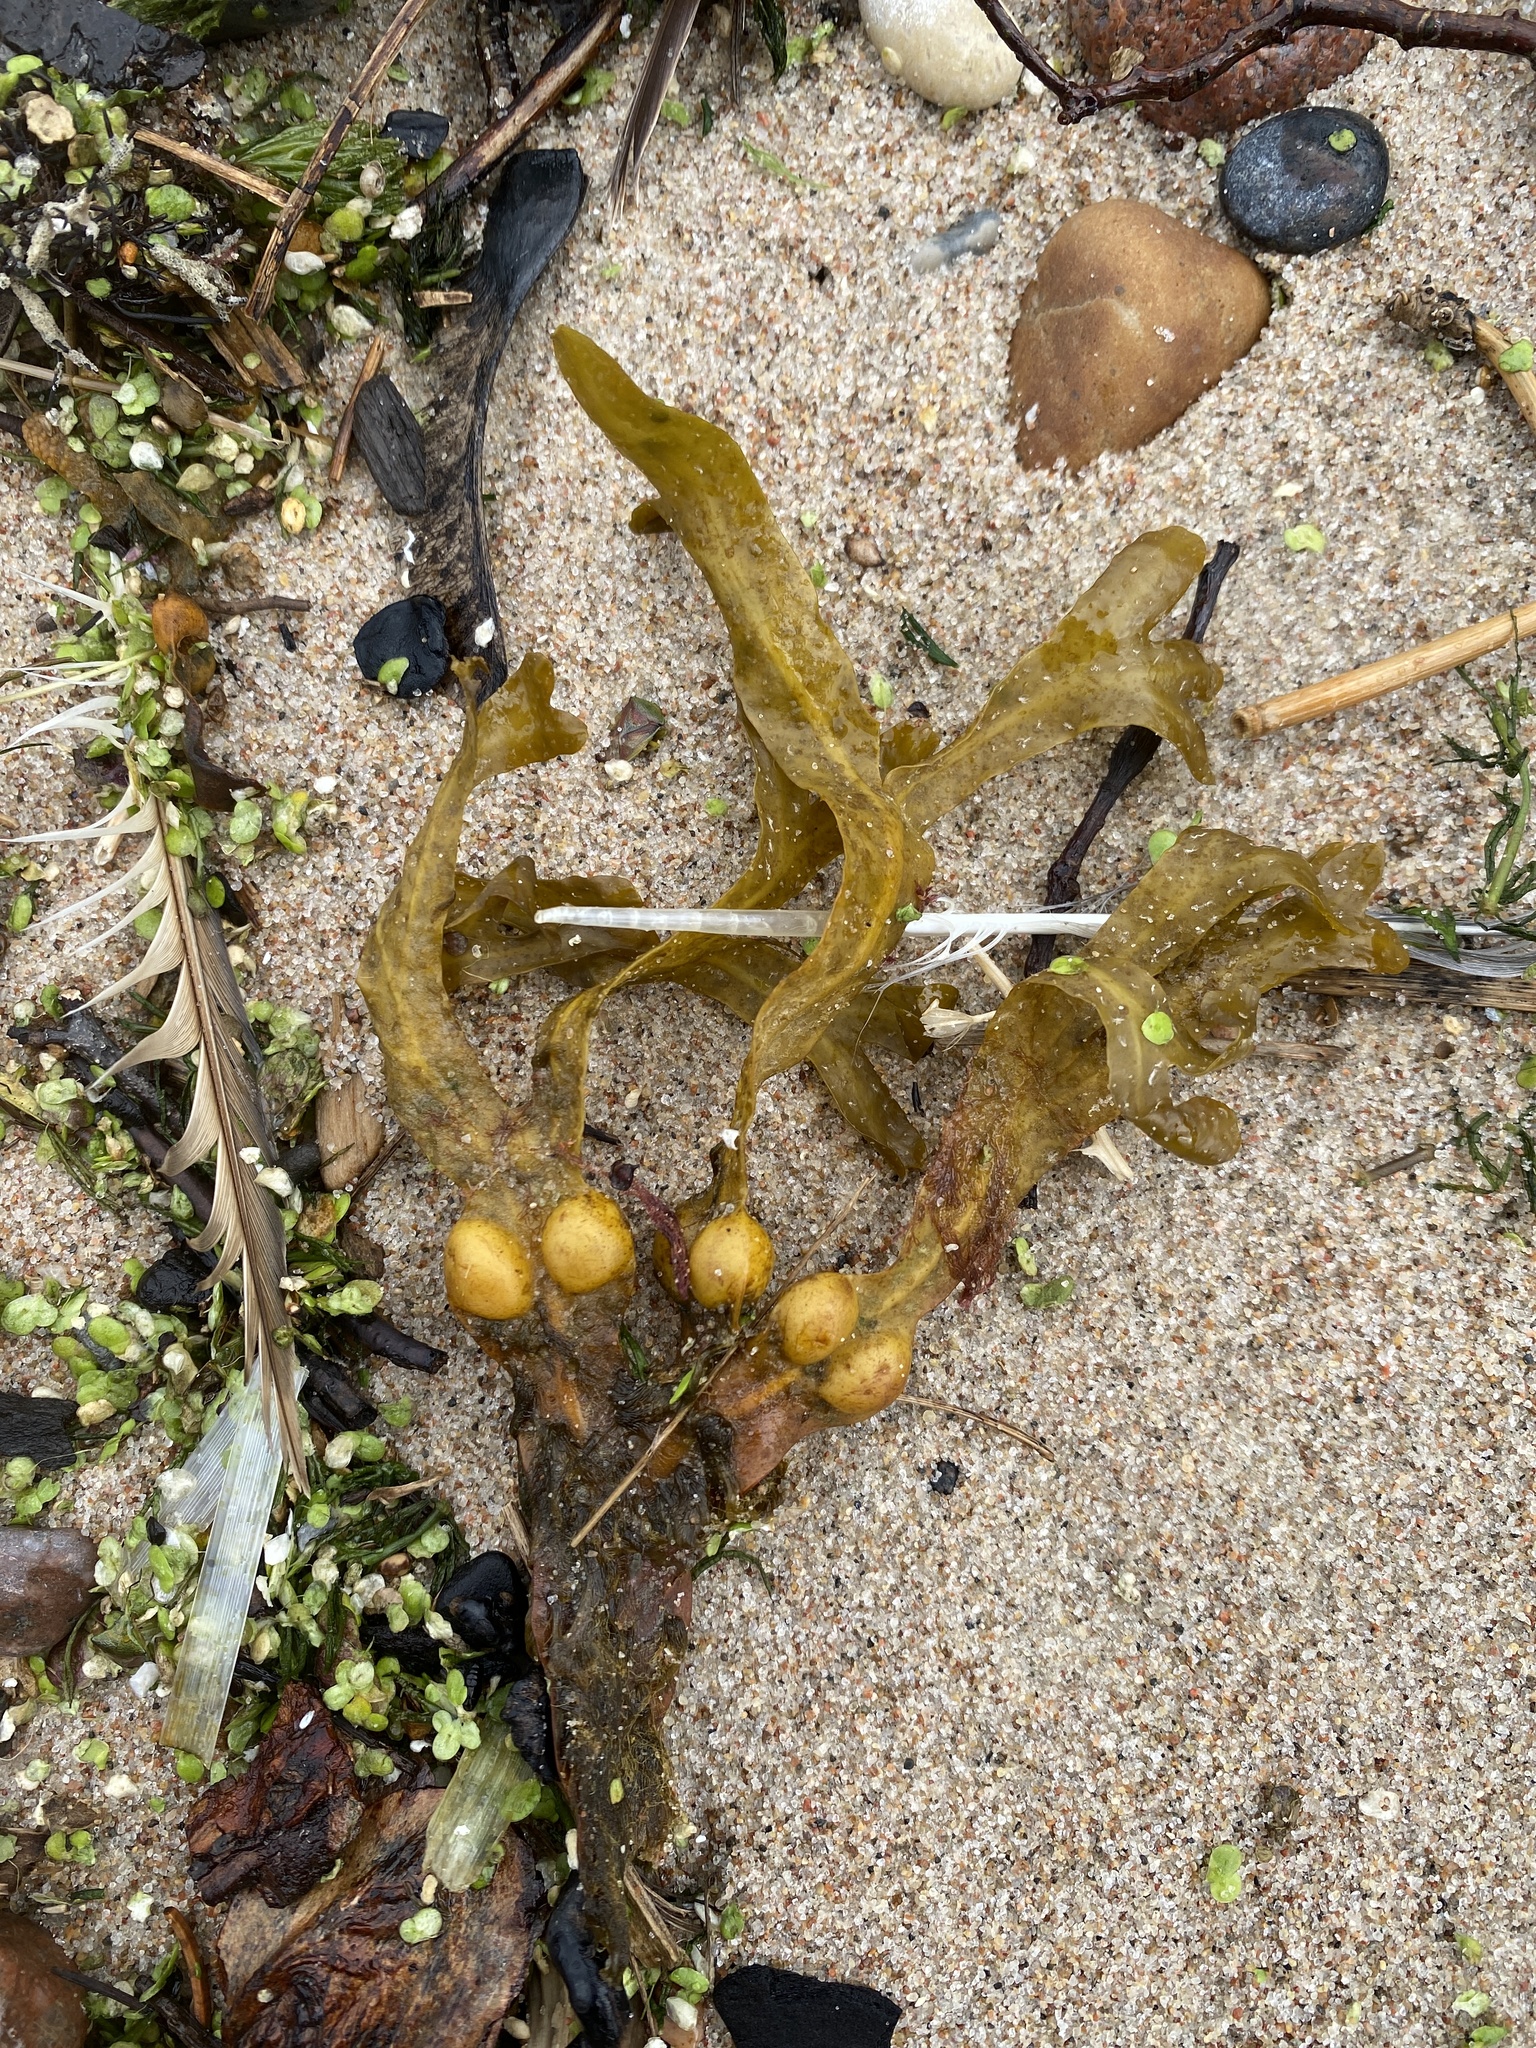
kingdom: Chromista
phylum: Ochrophyta
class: Phaeophyceae
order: Fucales
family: Fucaceae
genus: Fucus
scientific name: Fucus vesiculosus
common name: Bladder wrack
